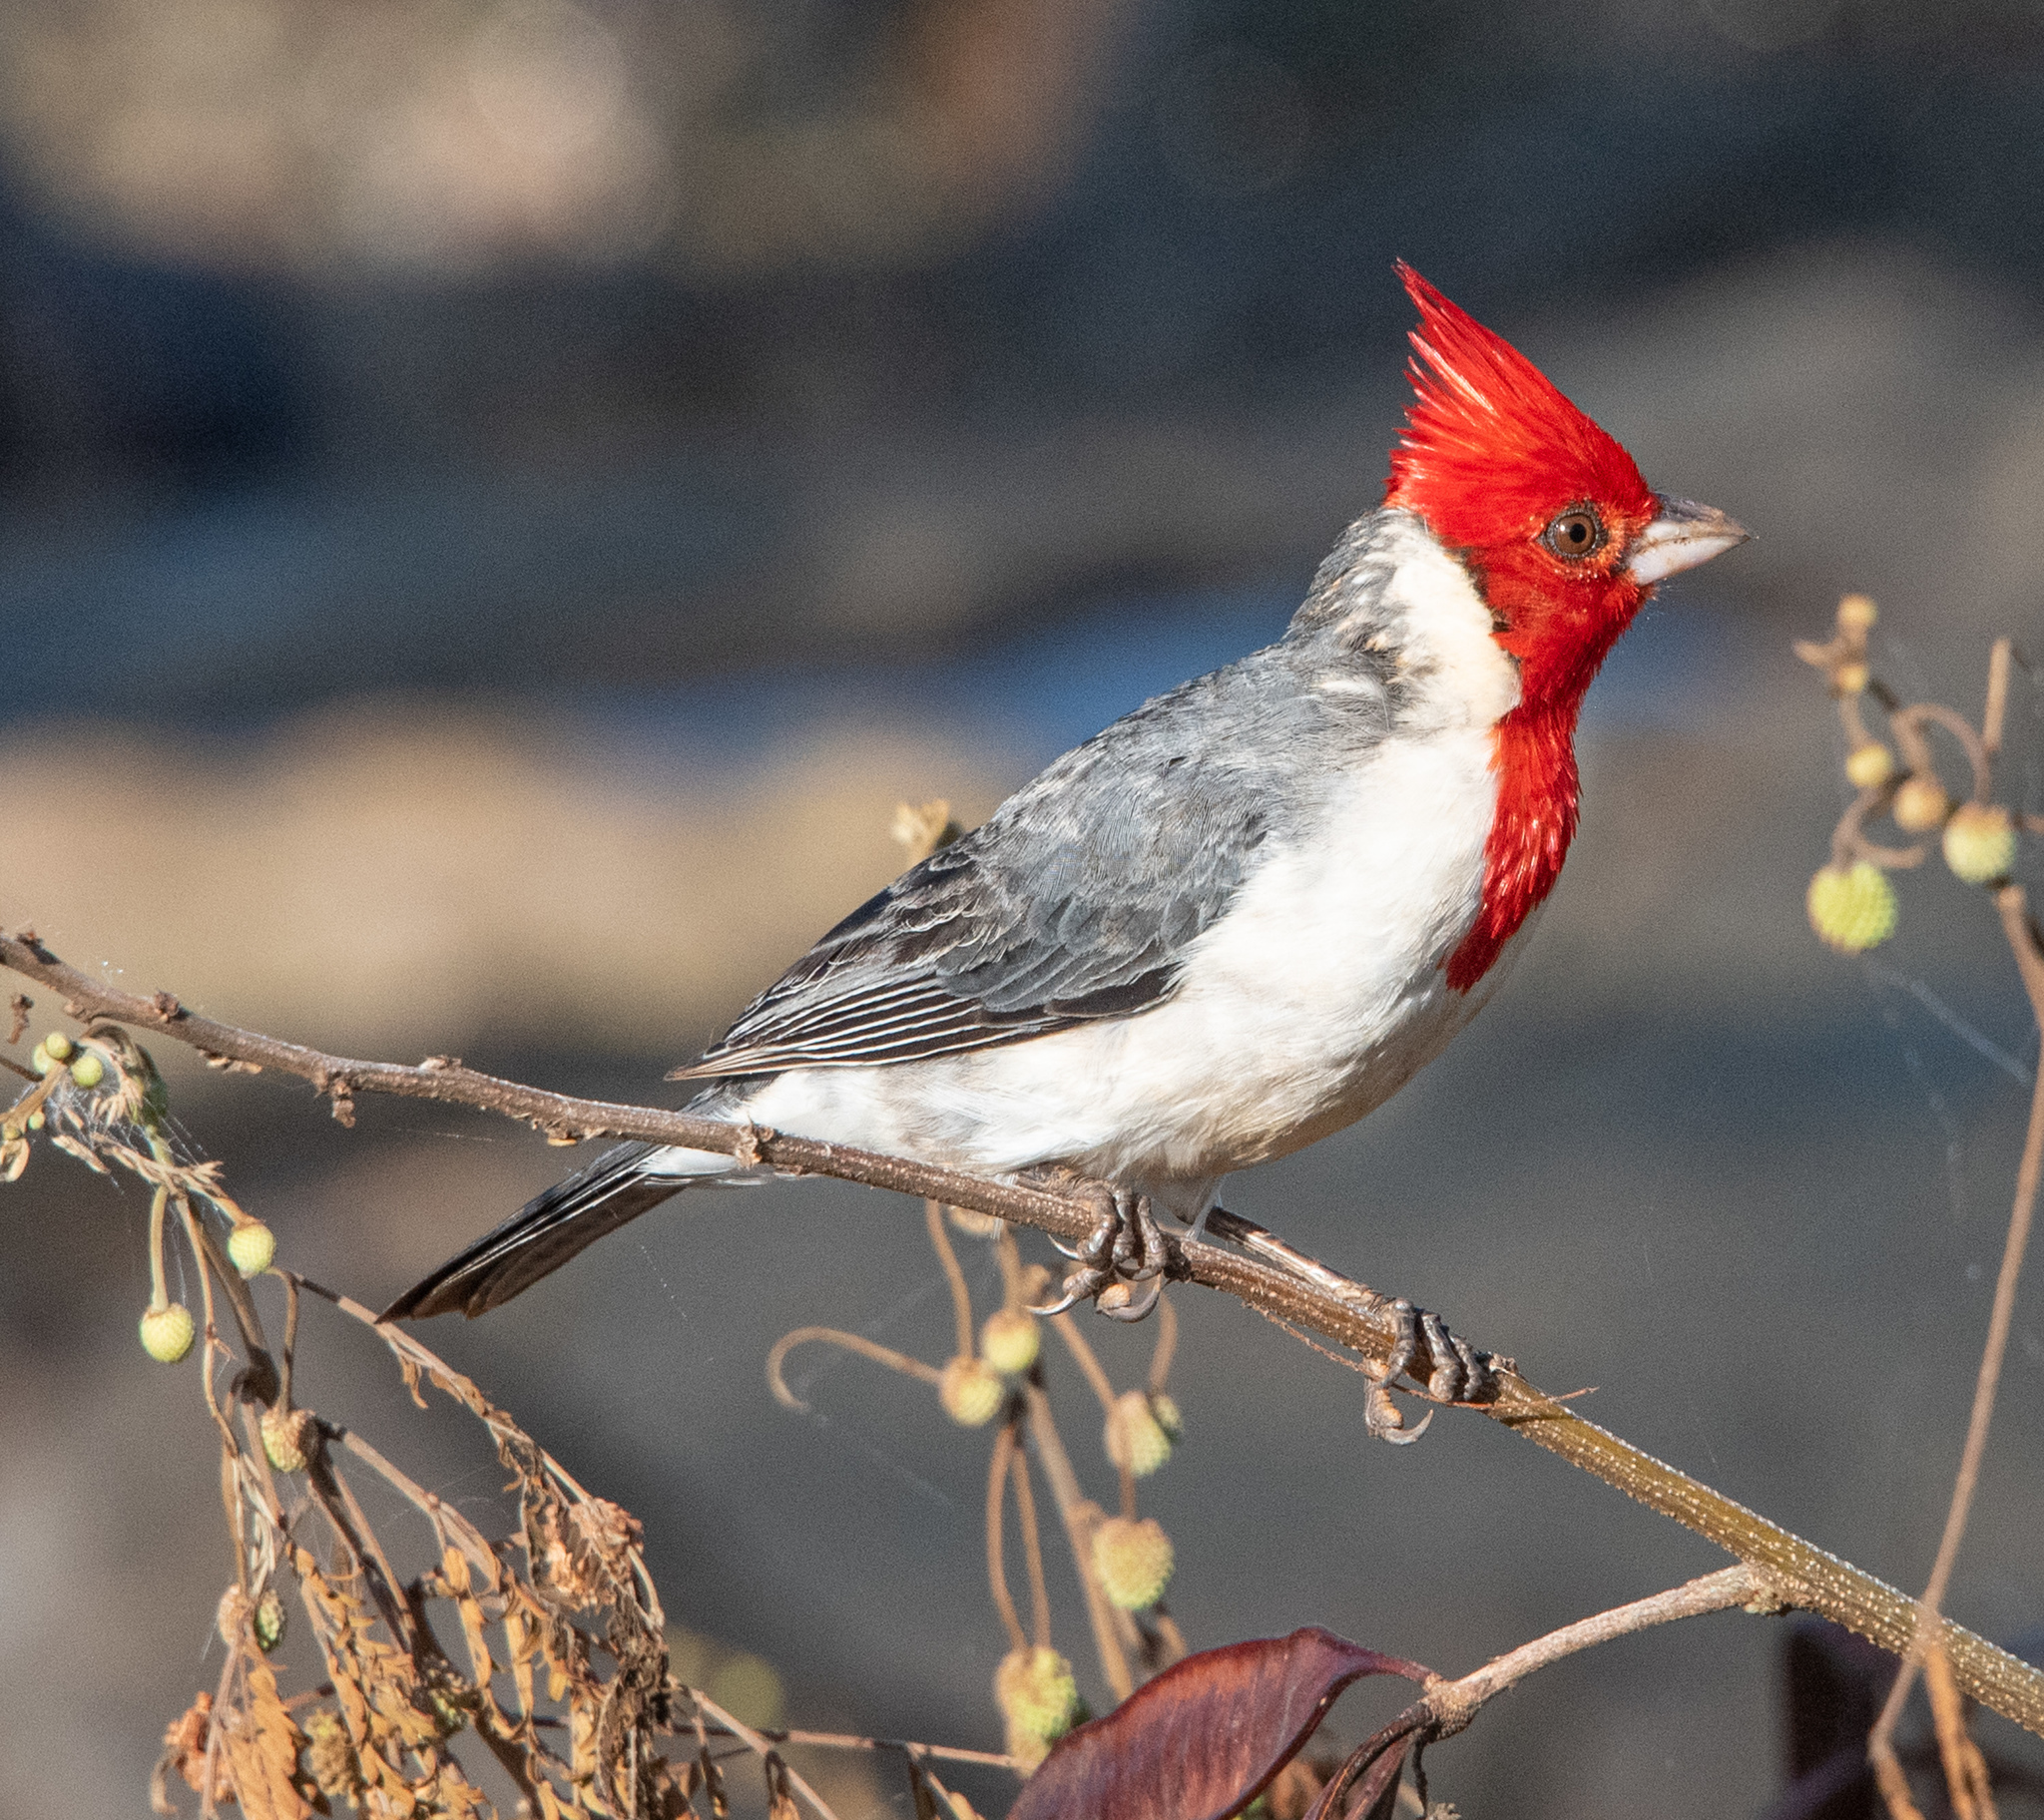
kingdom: Animalia
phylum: Chordata
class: Aves
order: Passeriformes
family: Thraupidae
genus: Paroaria
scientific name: Paroaria coronata
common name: Red-crested cardinal
